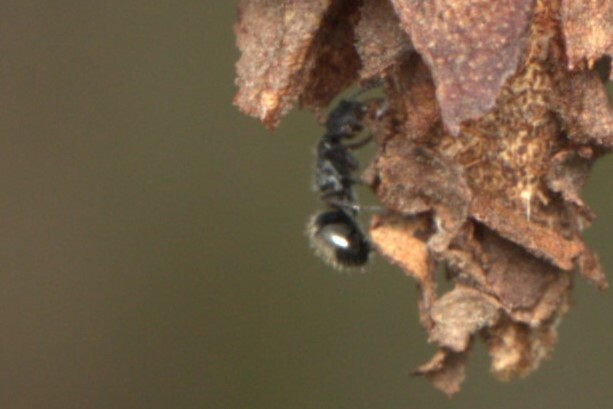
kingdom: Animalia
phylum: Arthropoda
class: Insecta
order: Hymenoptera
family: Formicidae
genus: Dolichoderus
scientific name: Dolichoderus scrobiculatus
